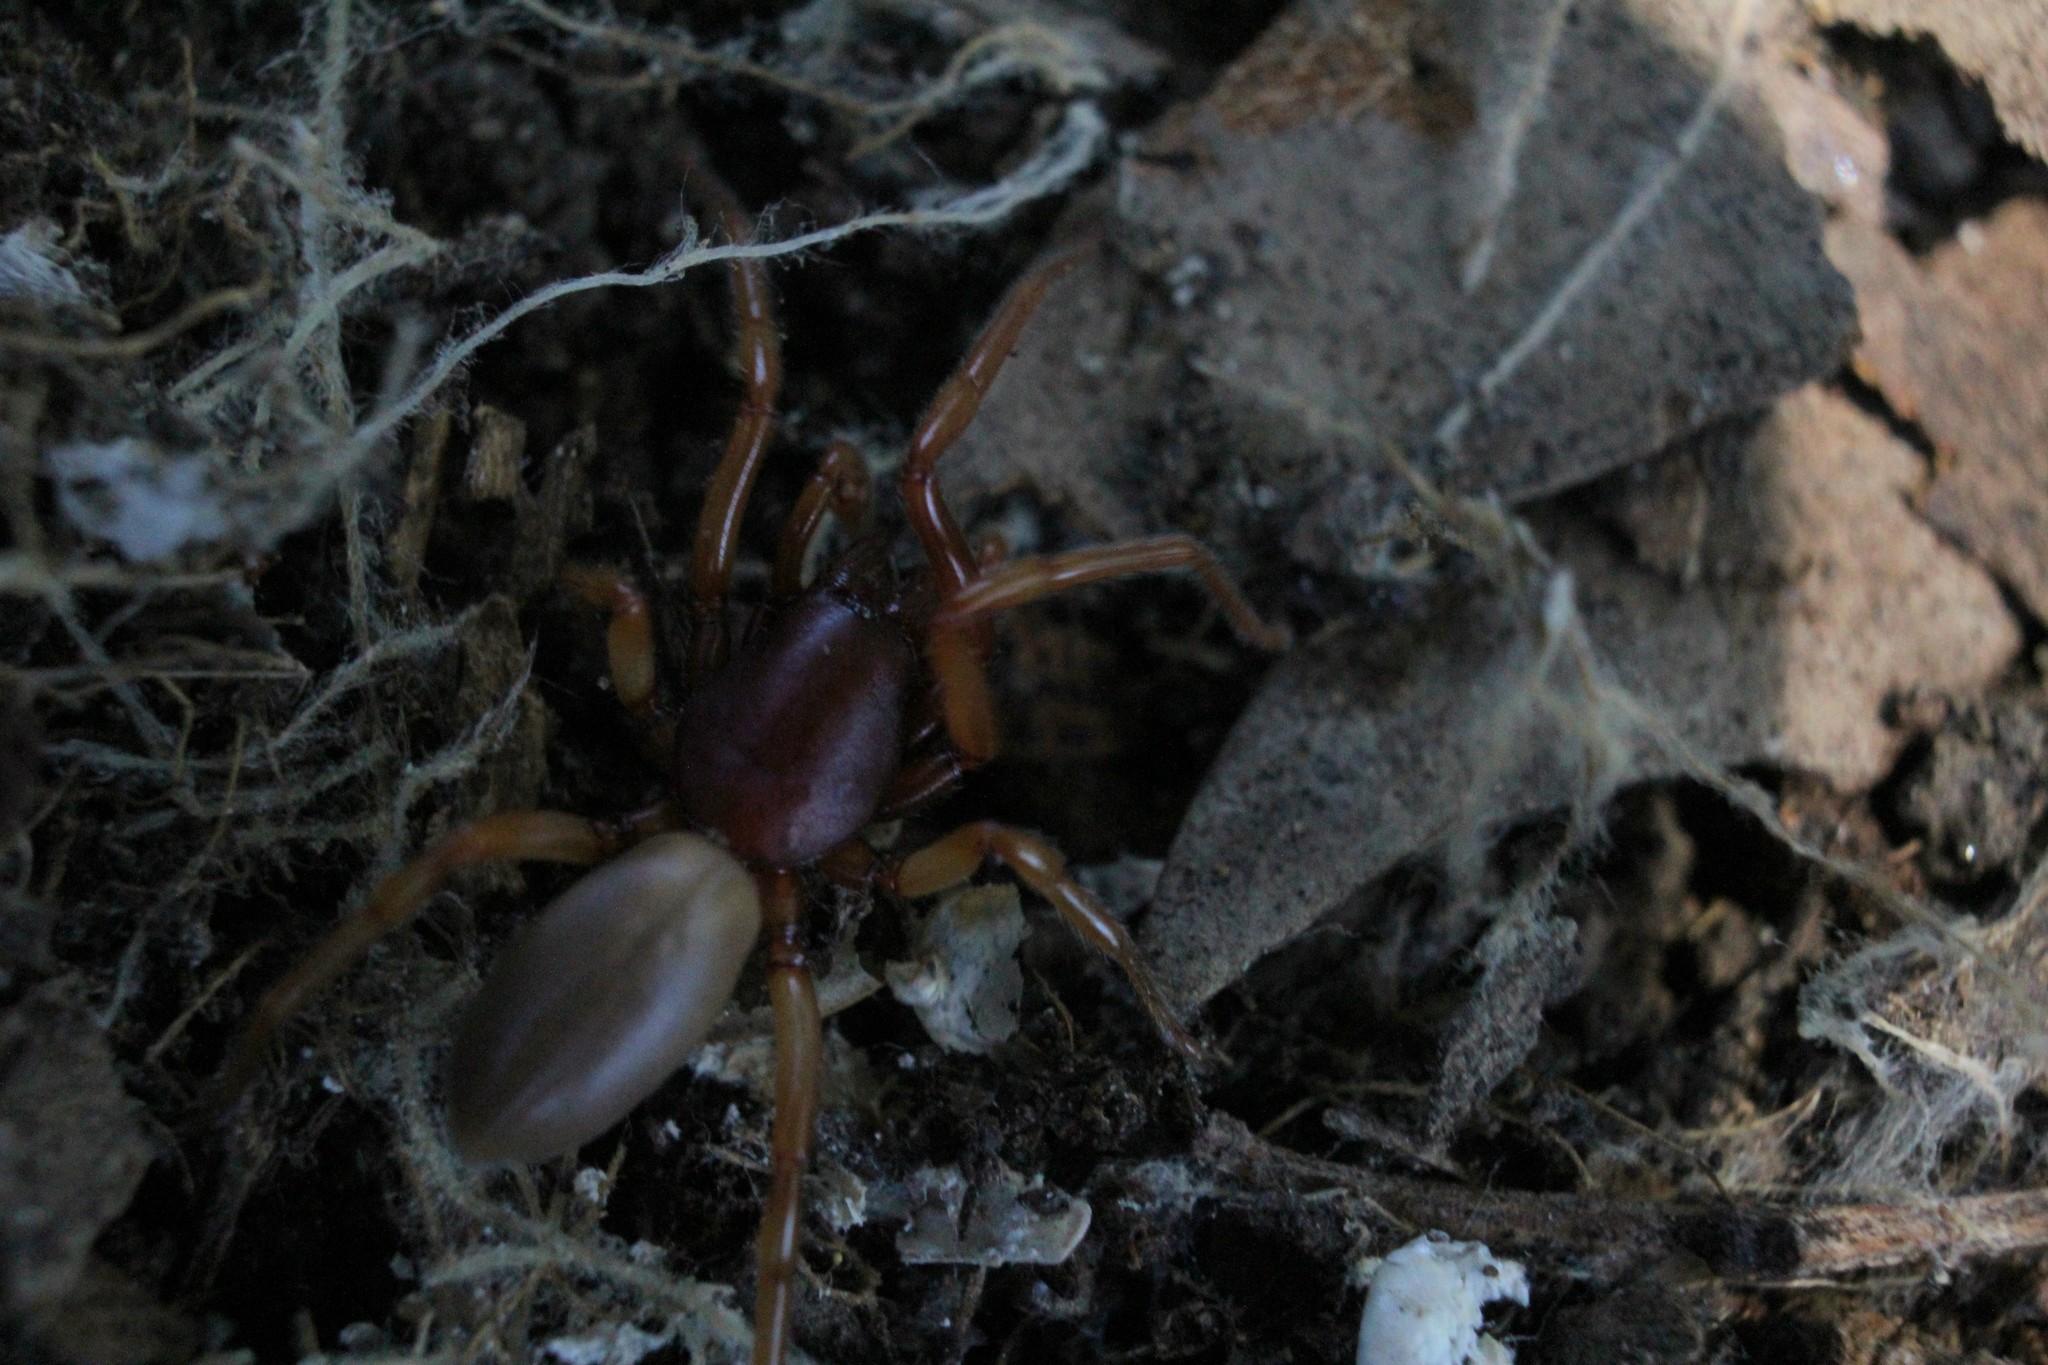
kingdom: Animalia
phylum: Arthropoda
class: Arachnida
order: Araneae
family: Dysderidae
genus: Dysdera
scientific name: Dysdera crocata
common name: Woodlouse spider
